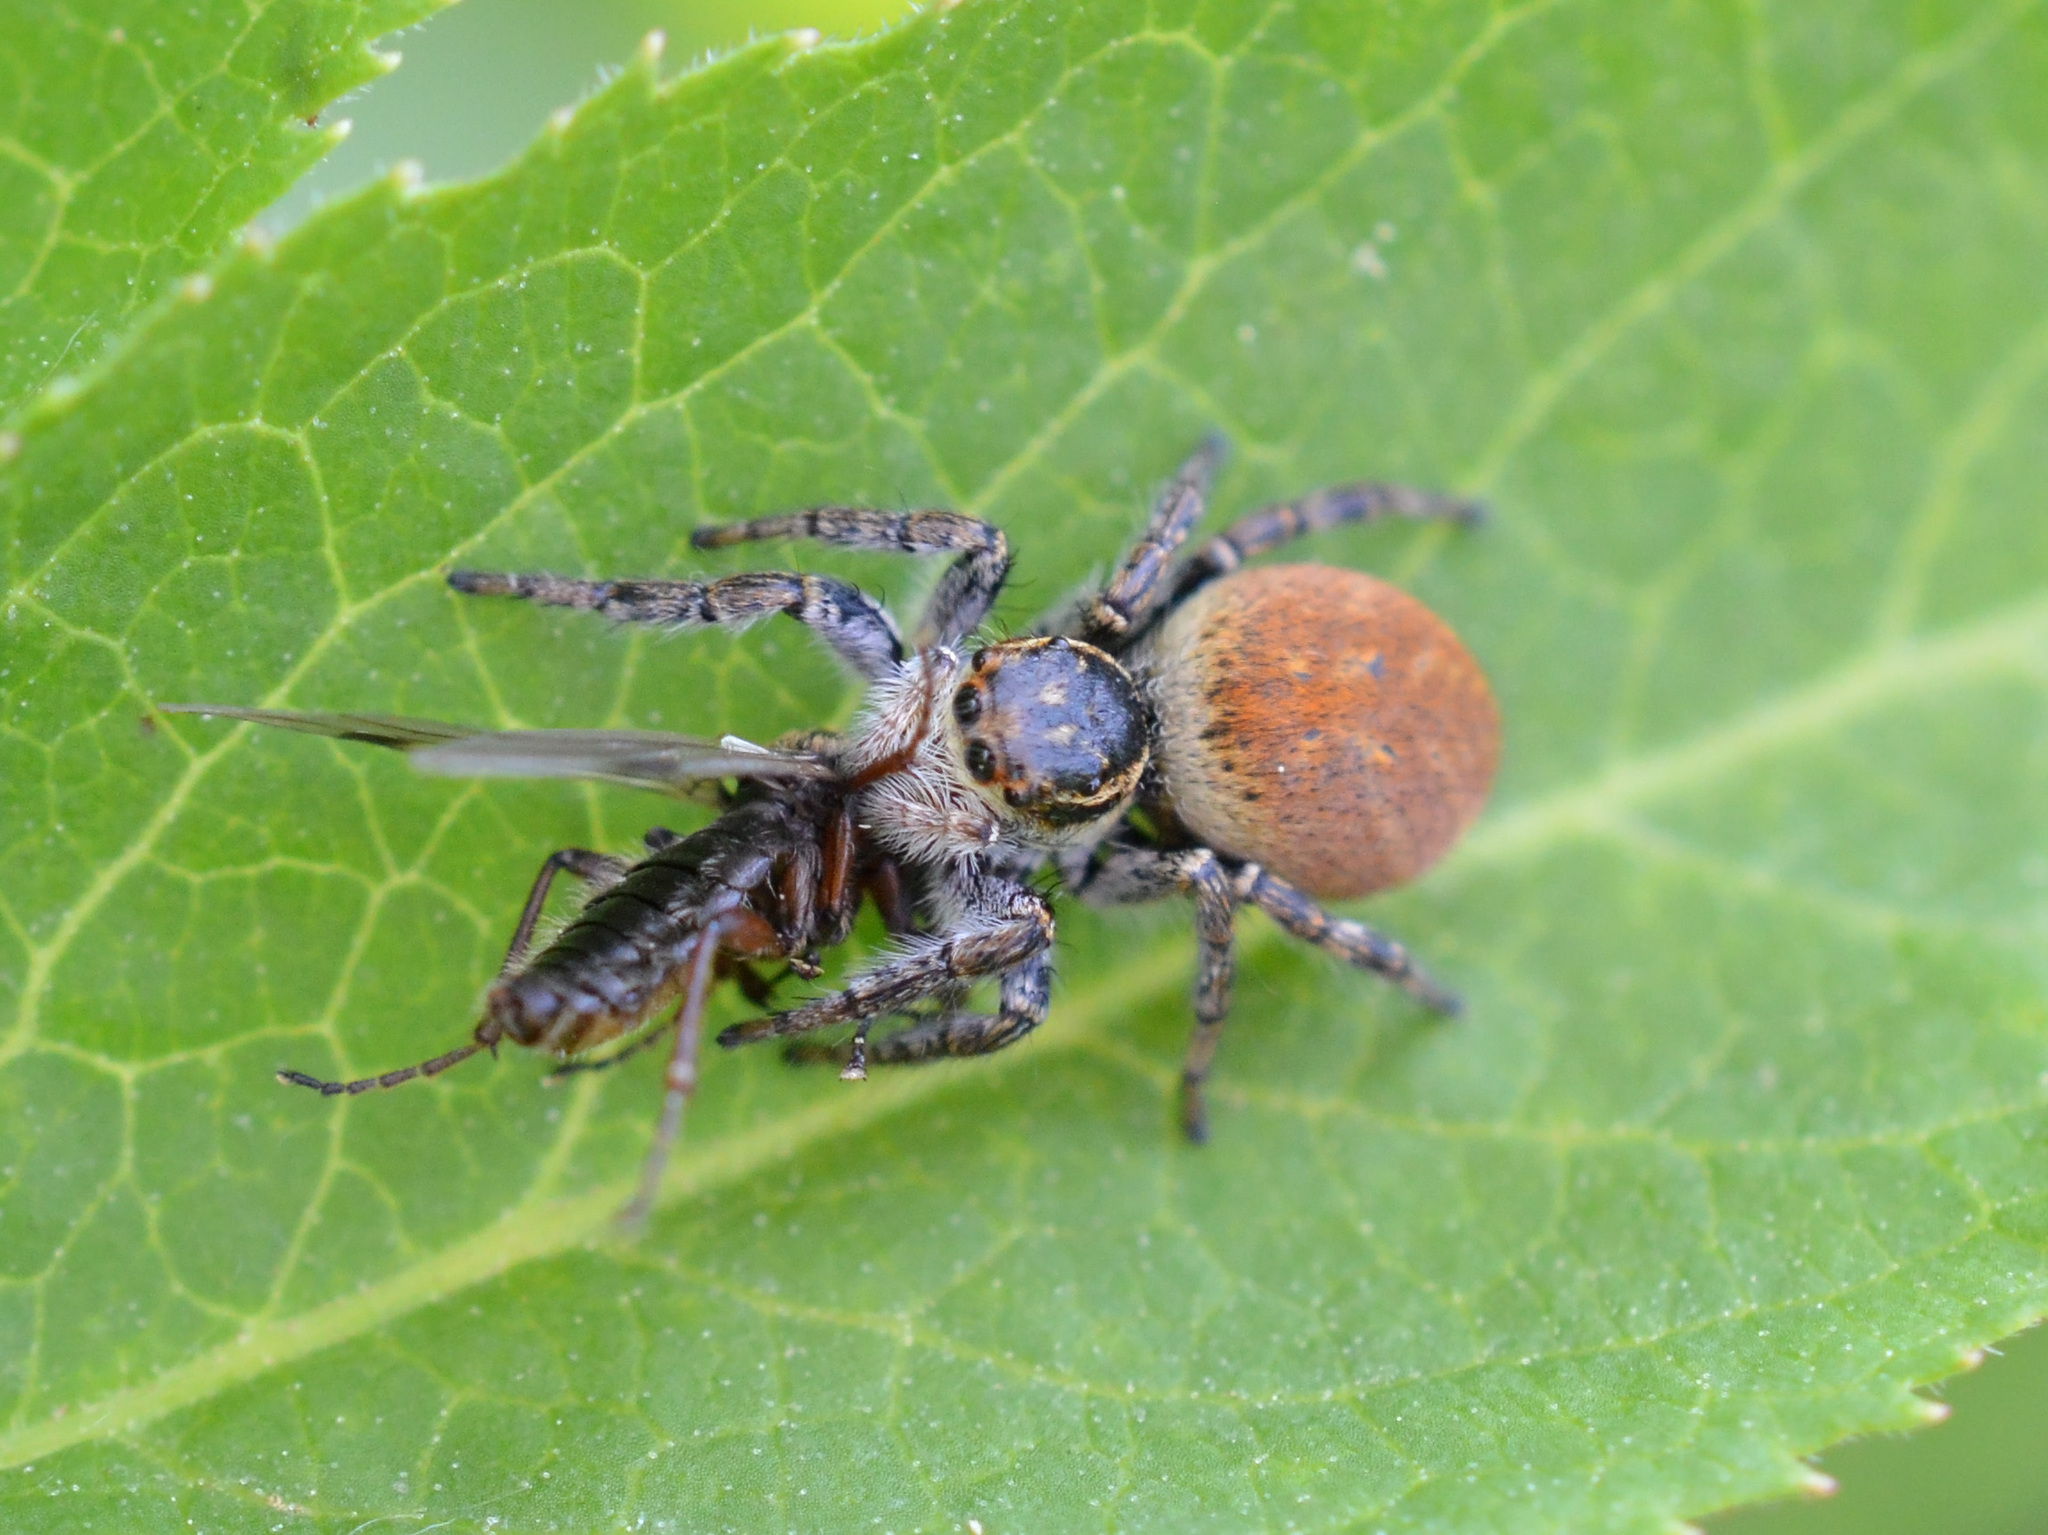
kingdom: Animalia
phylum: Arthropoda
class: Arachnida
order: Araneae
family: Salticidae
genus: Carrhotus
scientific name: Carrhotus xanthogramma
